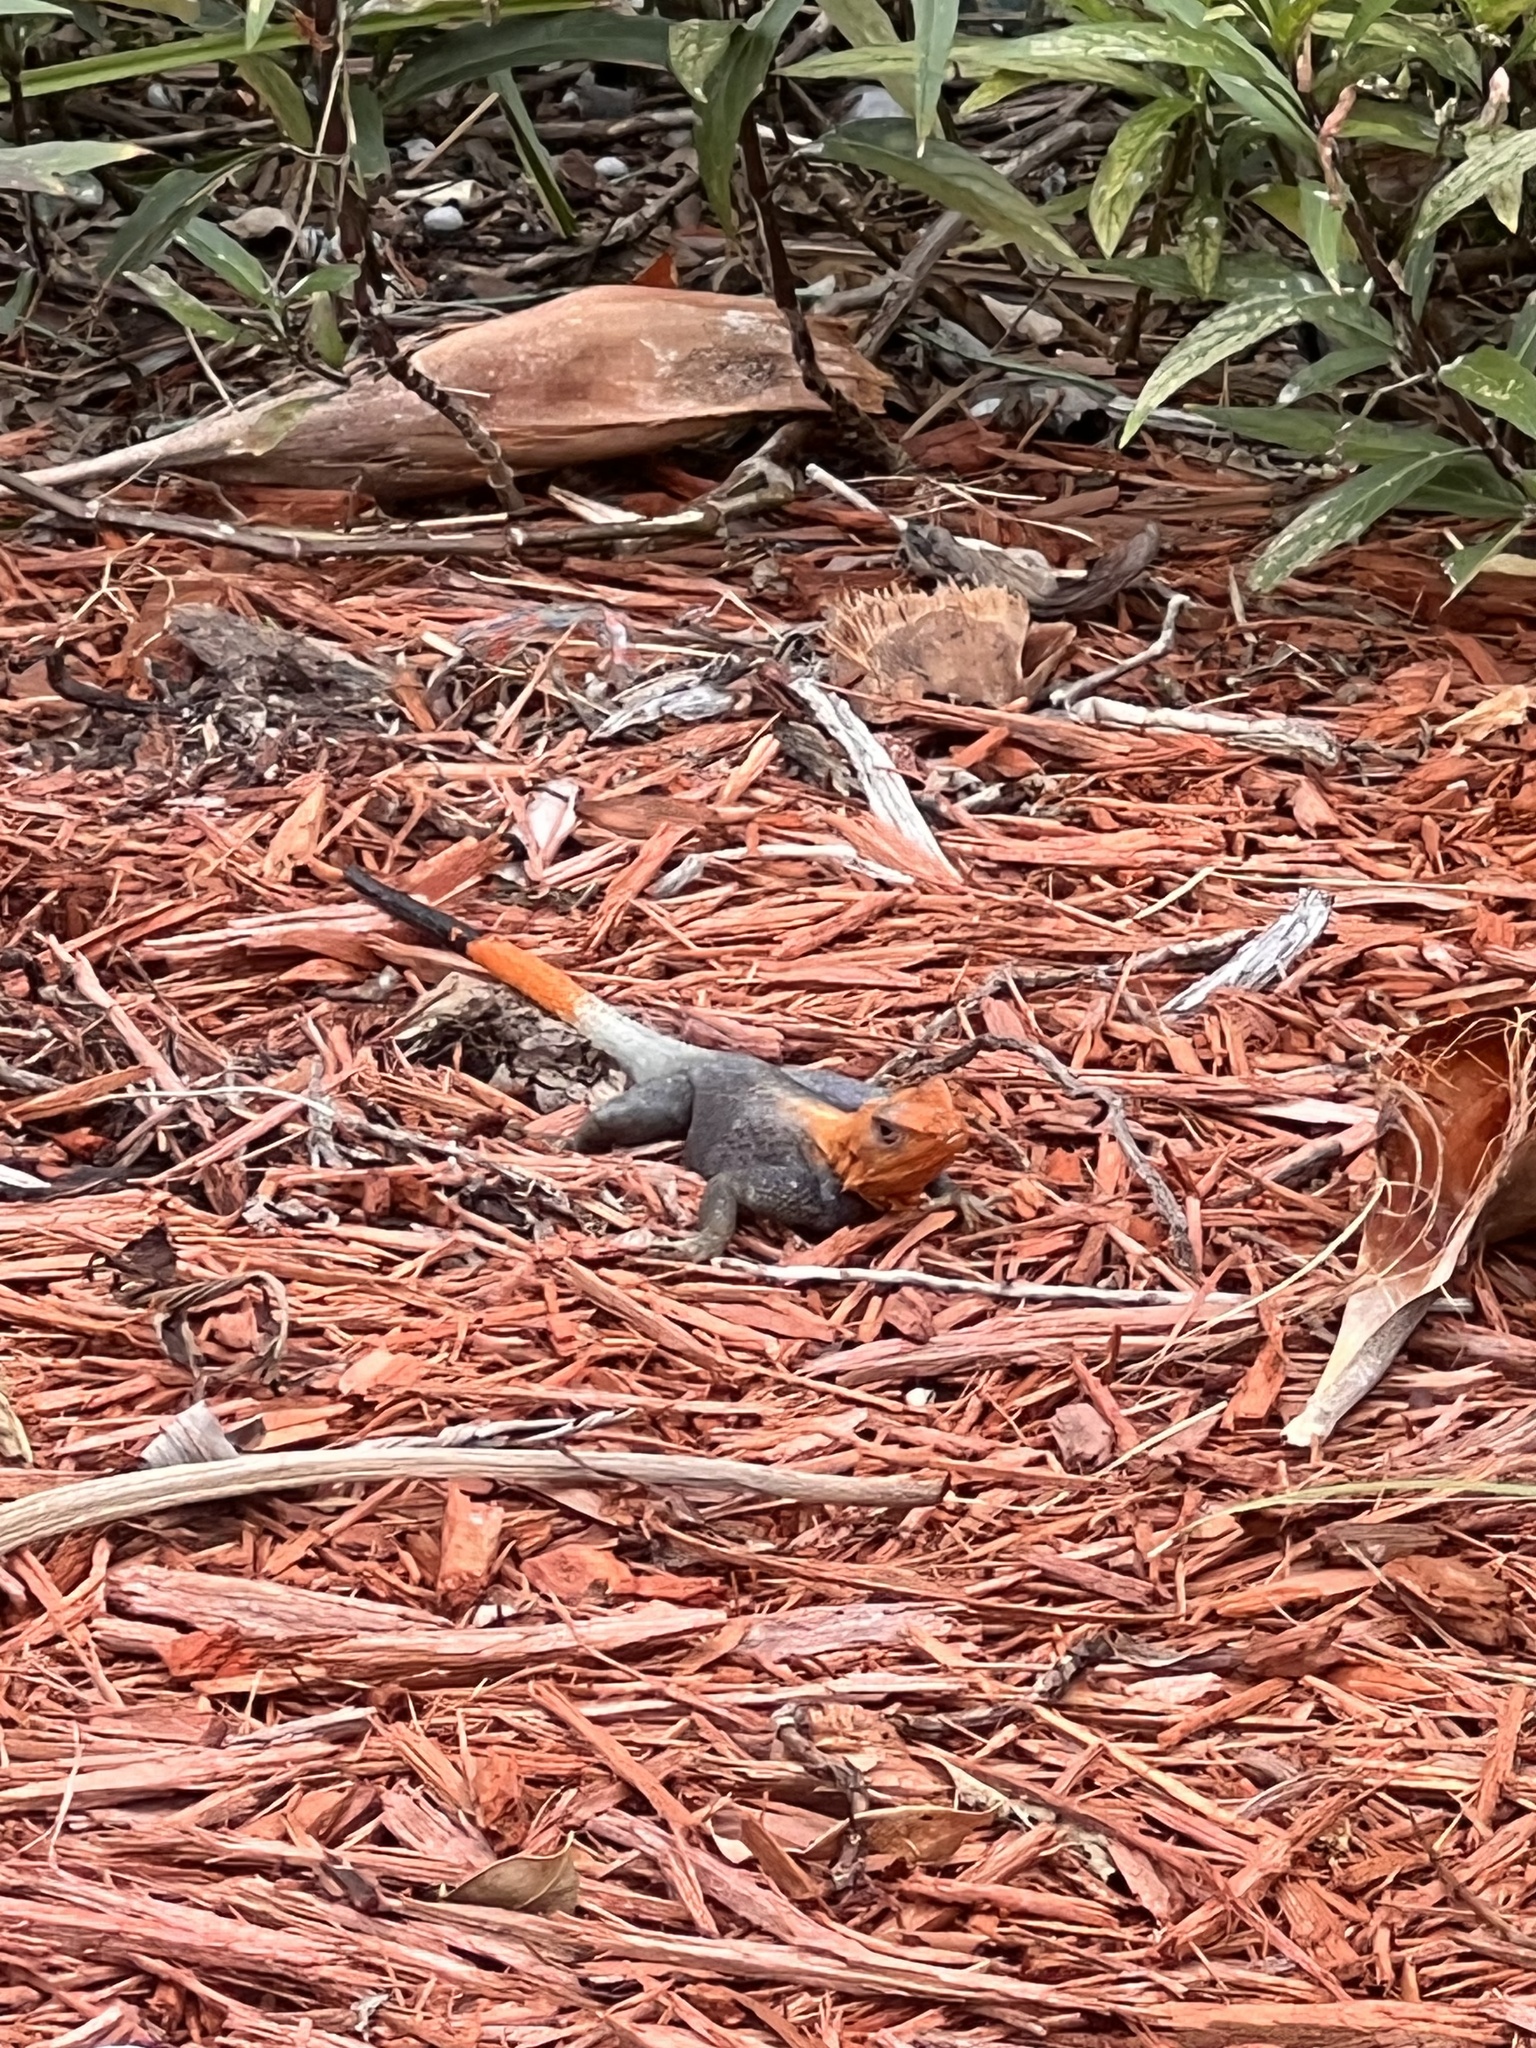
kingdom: Animalia
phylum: Chordata
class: Squamata
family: Agamidae
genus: Agama
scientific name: Agama picticauda
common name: Red-headed agama
